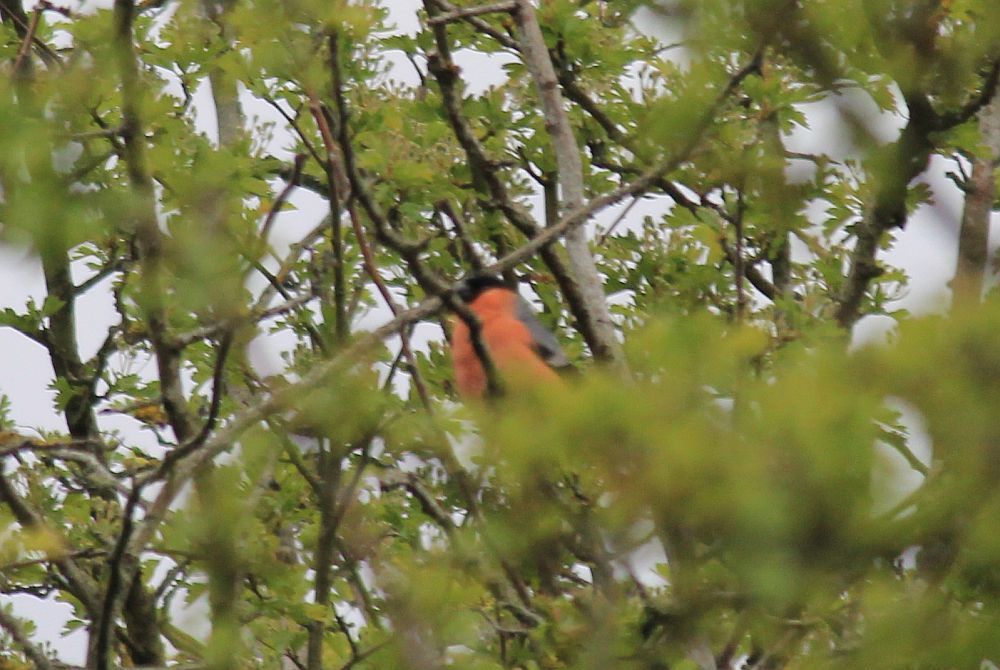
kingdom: Animalia
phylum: Chordata
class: Aves
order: Passeriformes
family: Fringillidae
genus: Pyrrhula
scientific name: Pyrrhula pyrrhula
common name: Eurasian bullfinch
